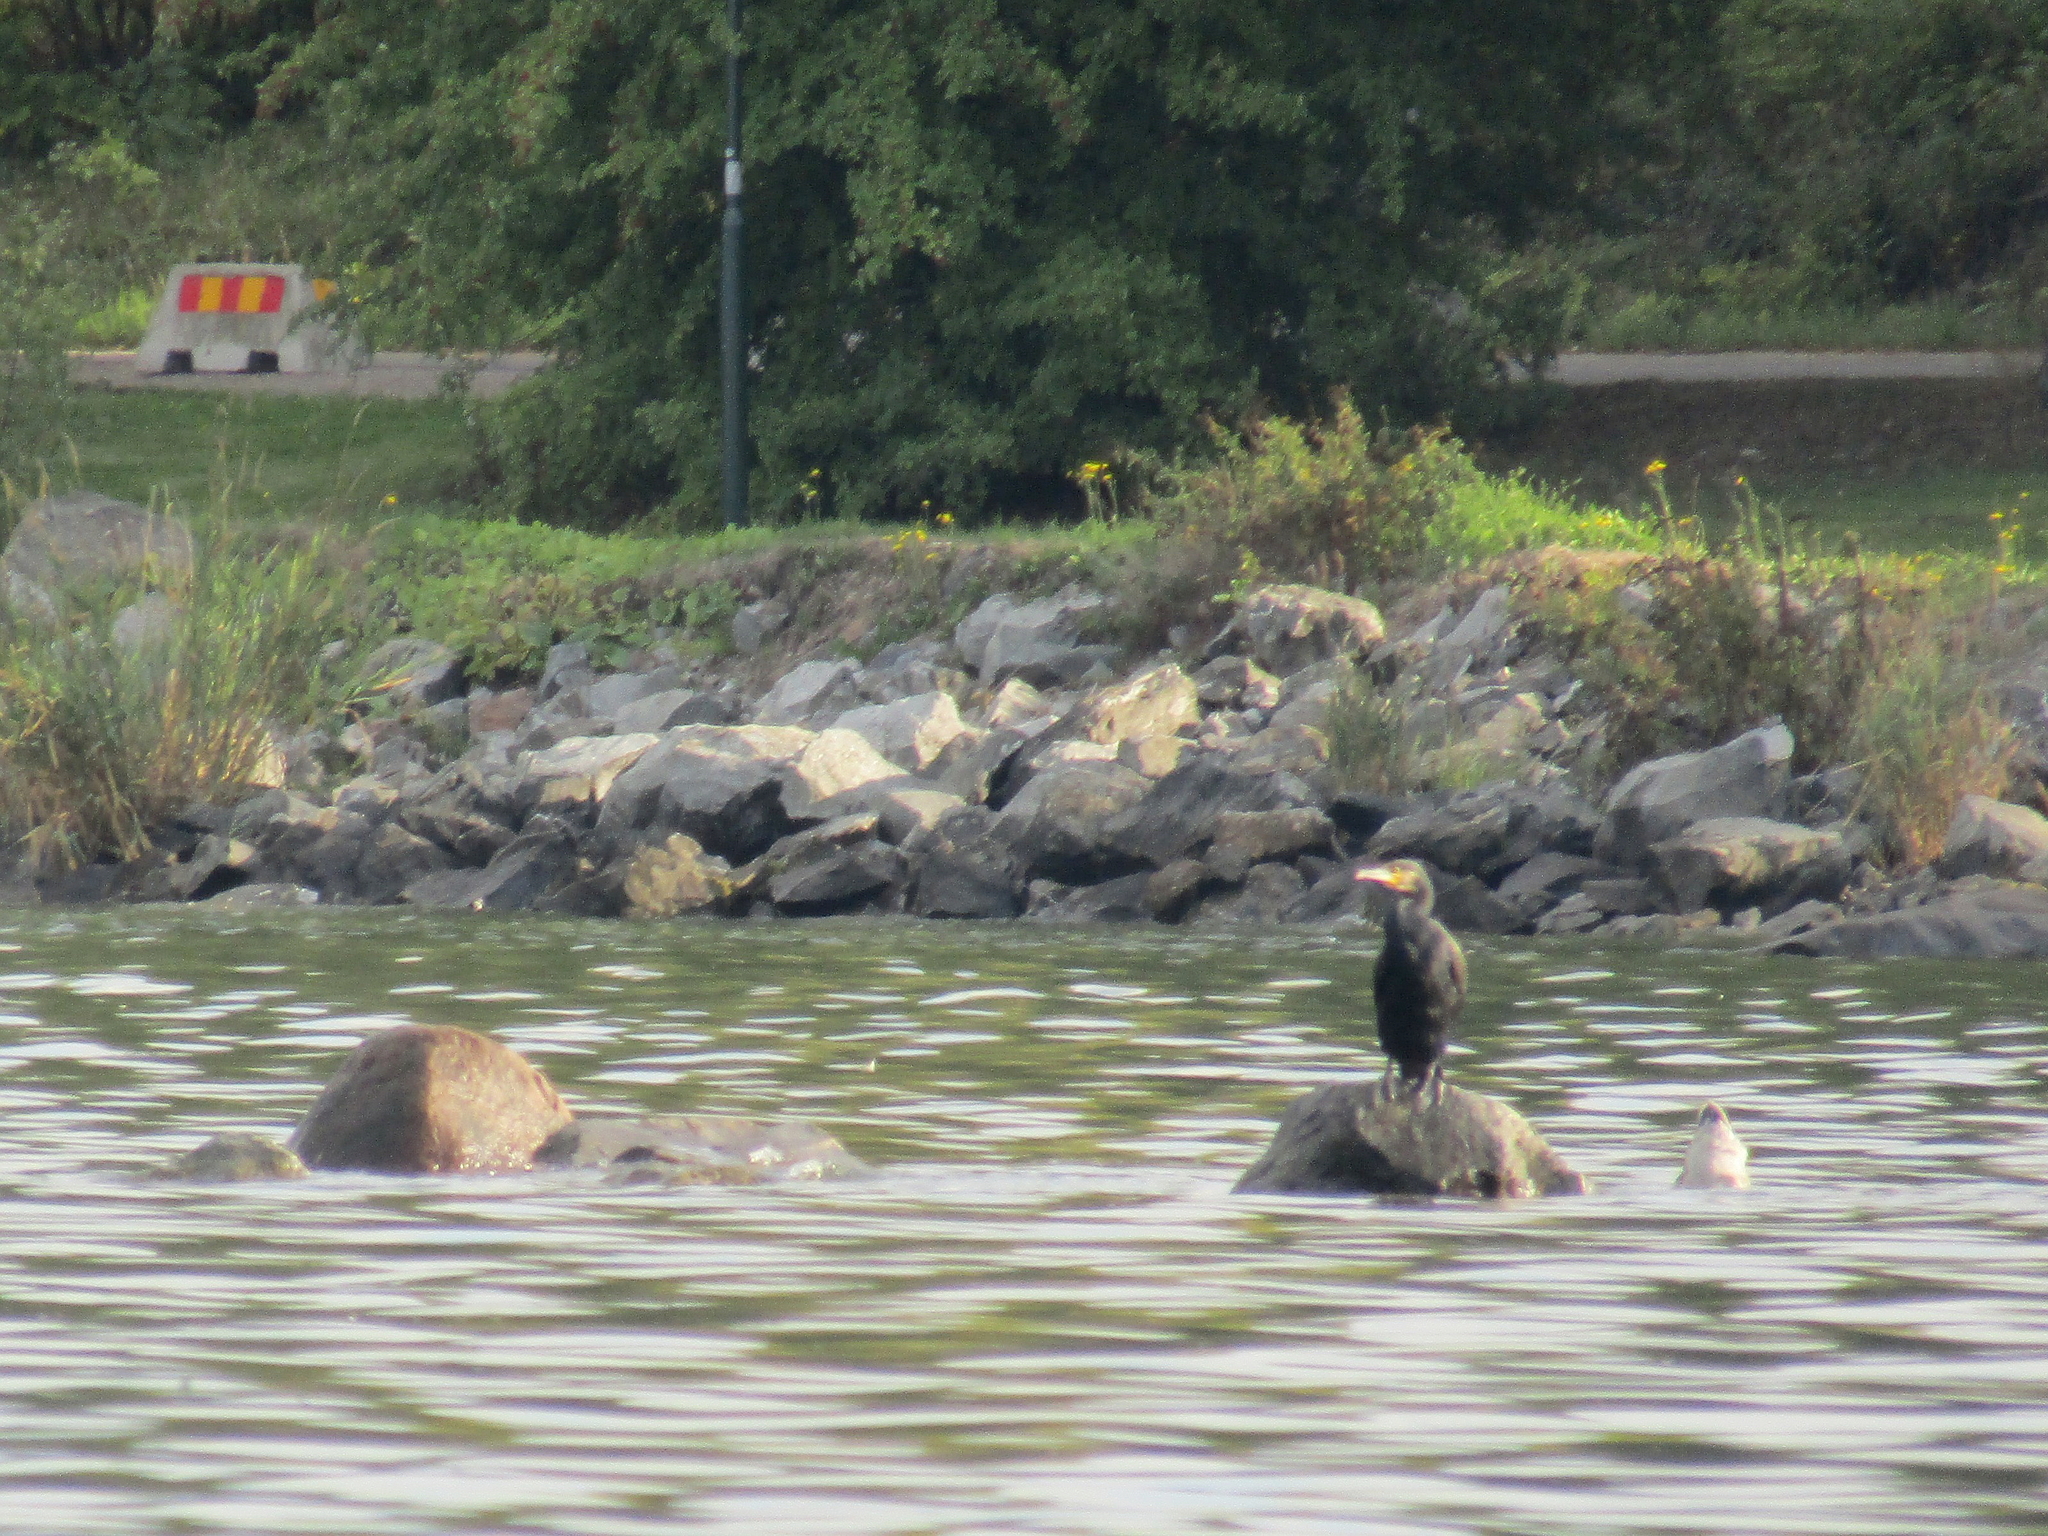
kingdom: Animalia
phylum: Chordata
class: Aves
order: Suliformes
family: Phalacrocoracidae
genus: Phalacrocorax
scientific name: Phalacrocorax carbo
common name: Great cormorant
